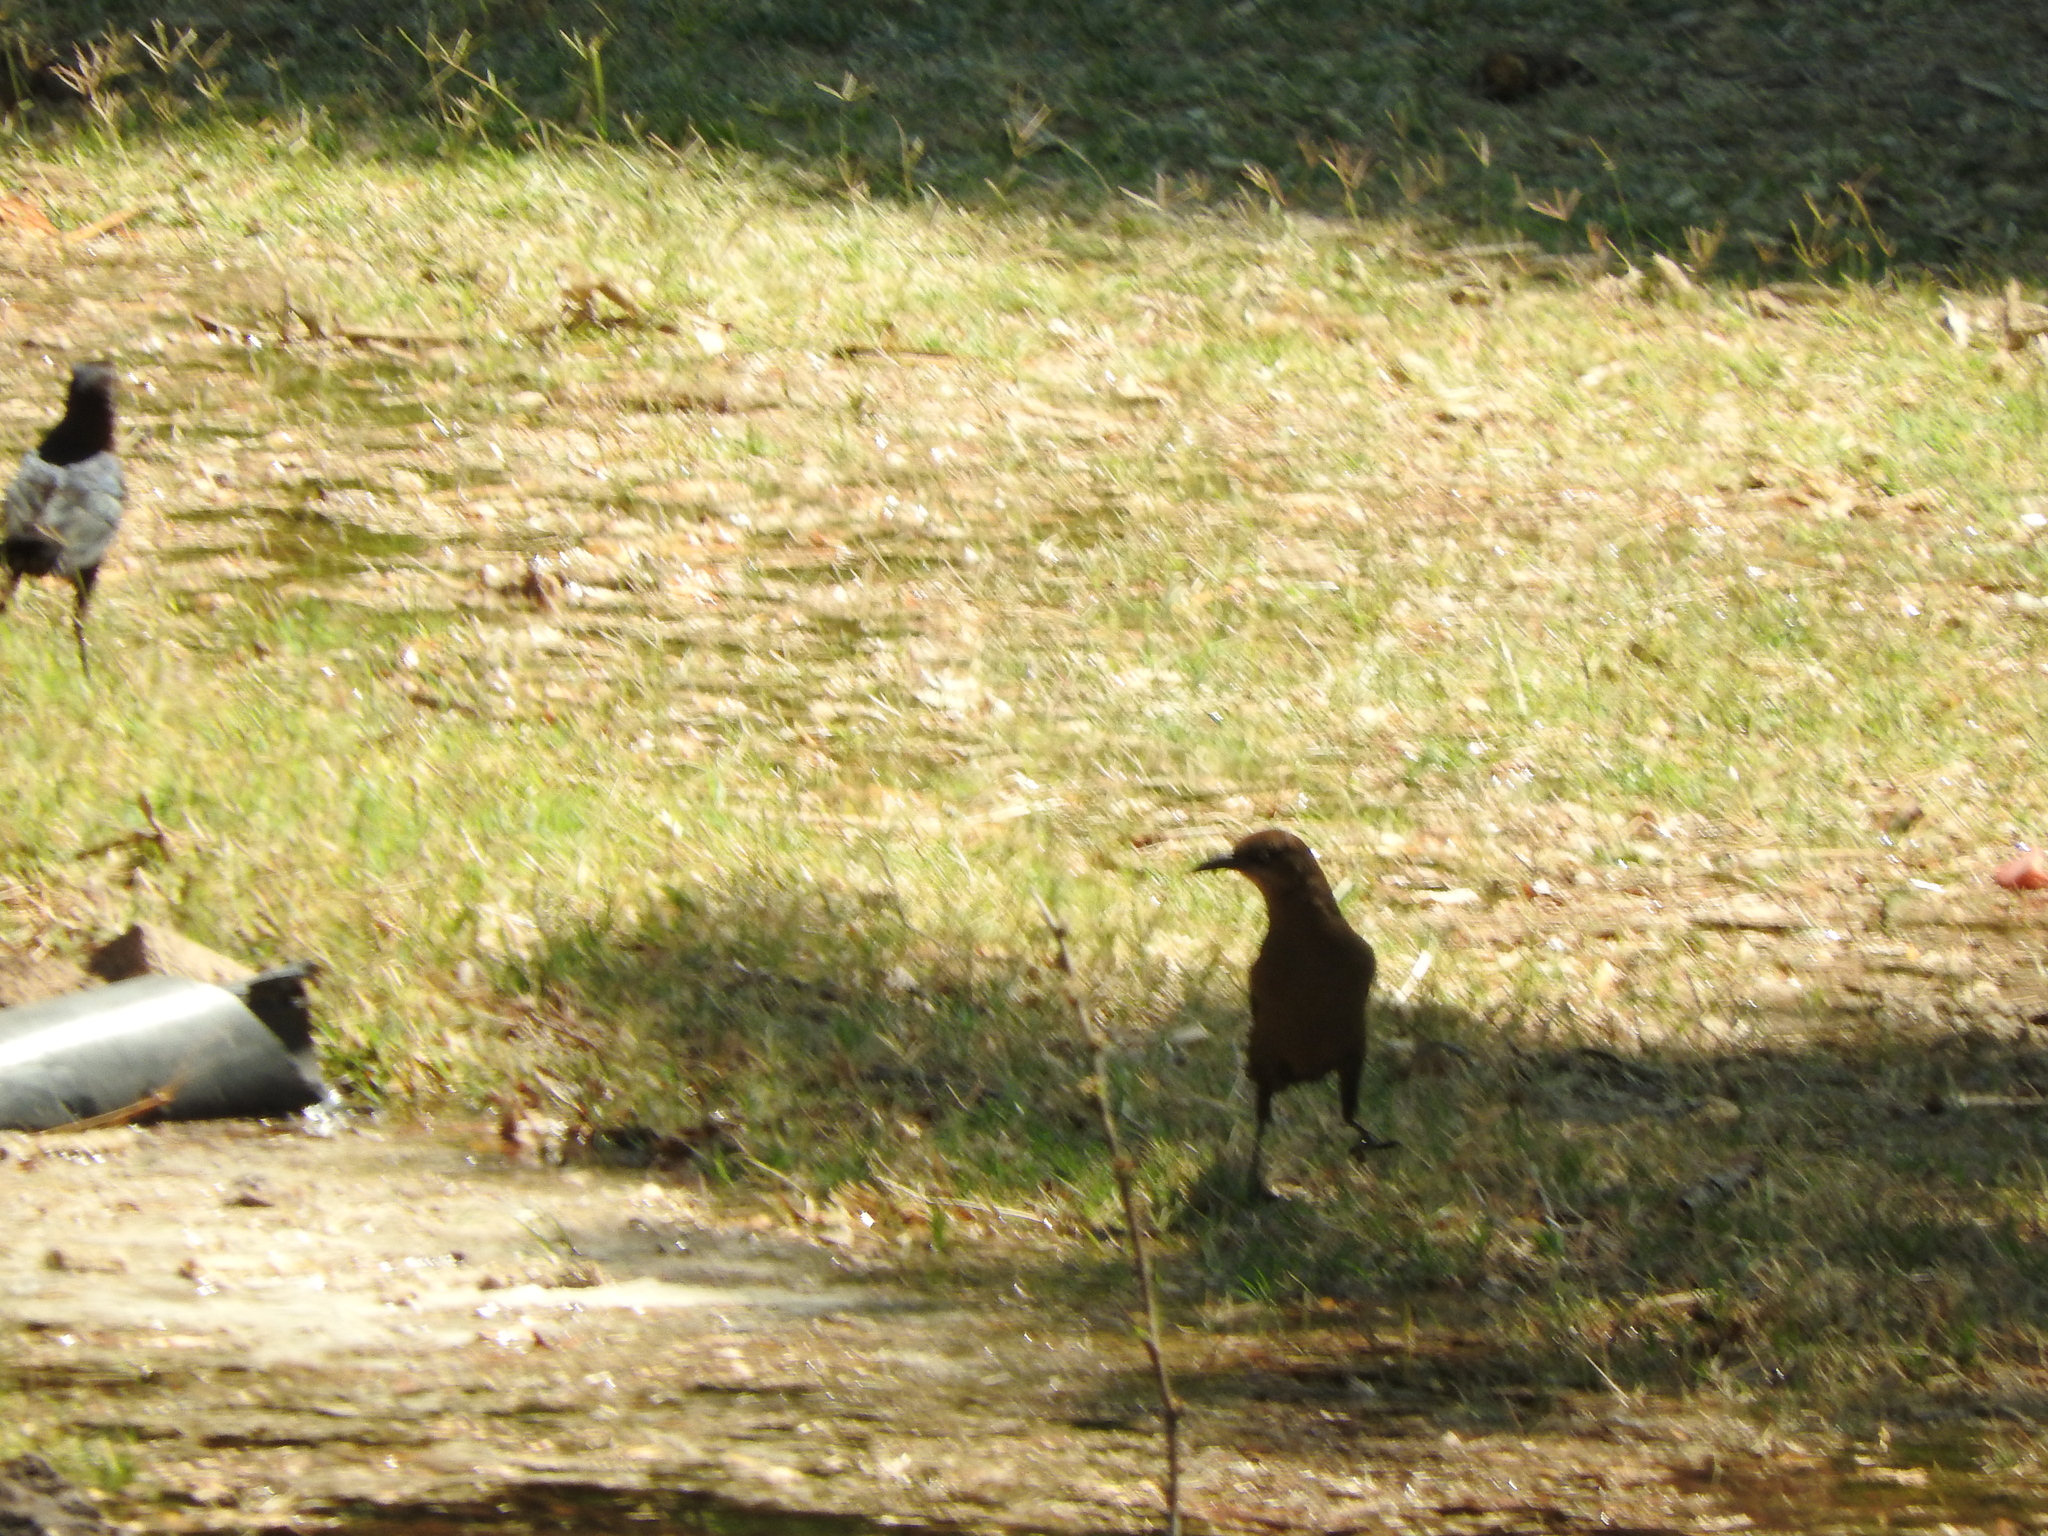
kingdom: Animalia
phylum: Chordata
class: Aves
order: Passeriformes
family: Icteridae
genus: Quiscalus
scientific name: Quiscalus mexicanus
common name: Great-tailed grackle
